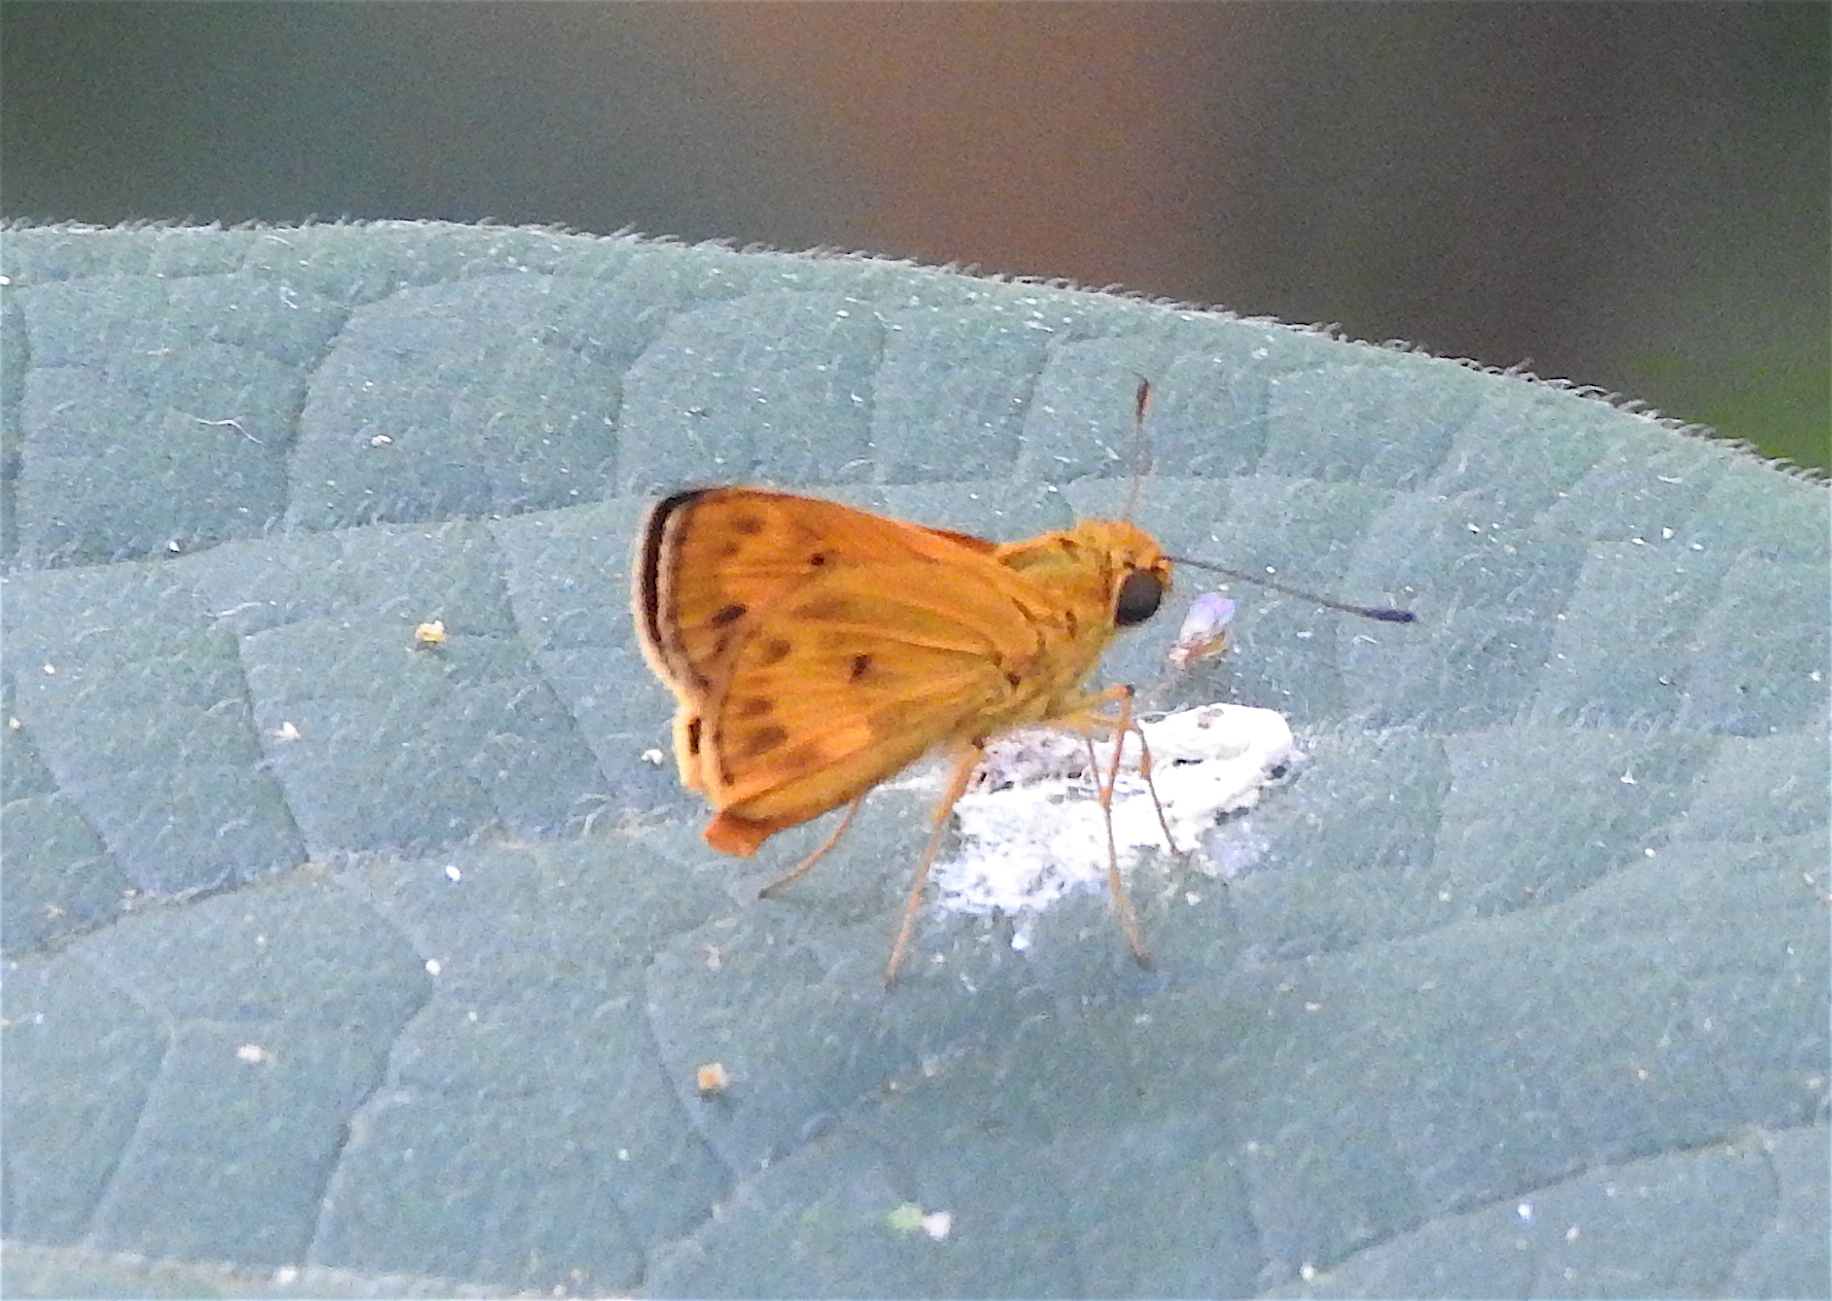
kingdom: Animalia
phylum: Arthropoda
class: Insecta
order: Lepidoptera
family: Hesperiidae
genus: Oriens
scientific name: Oriens gola
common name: Common dartlet
